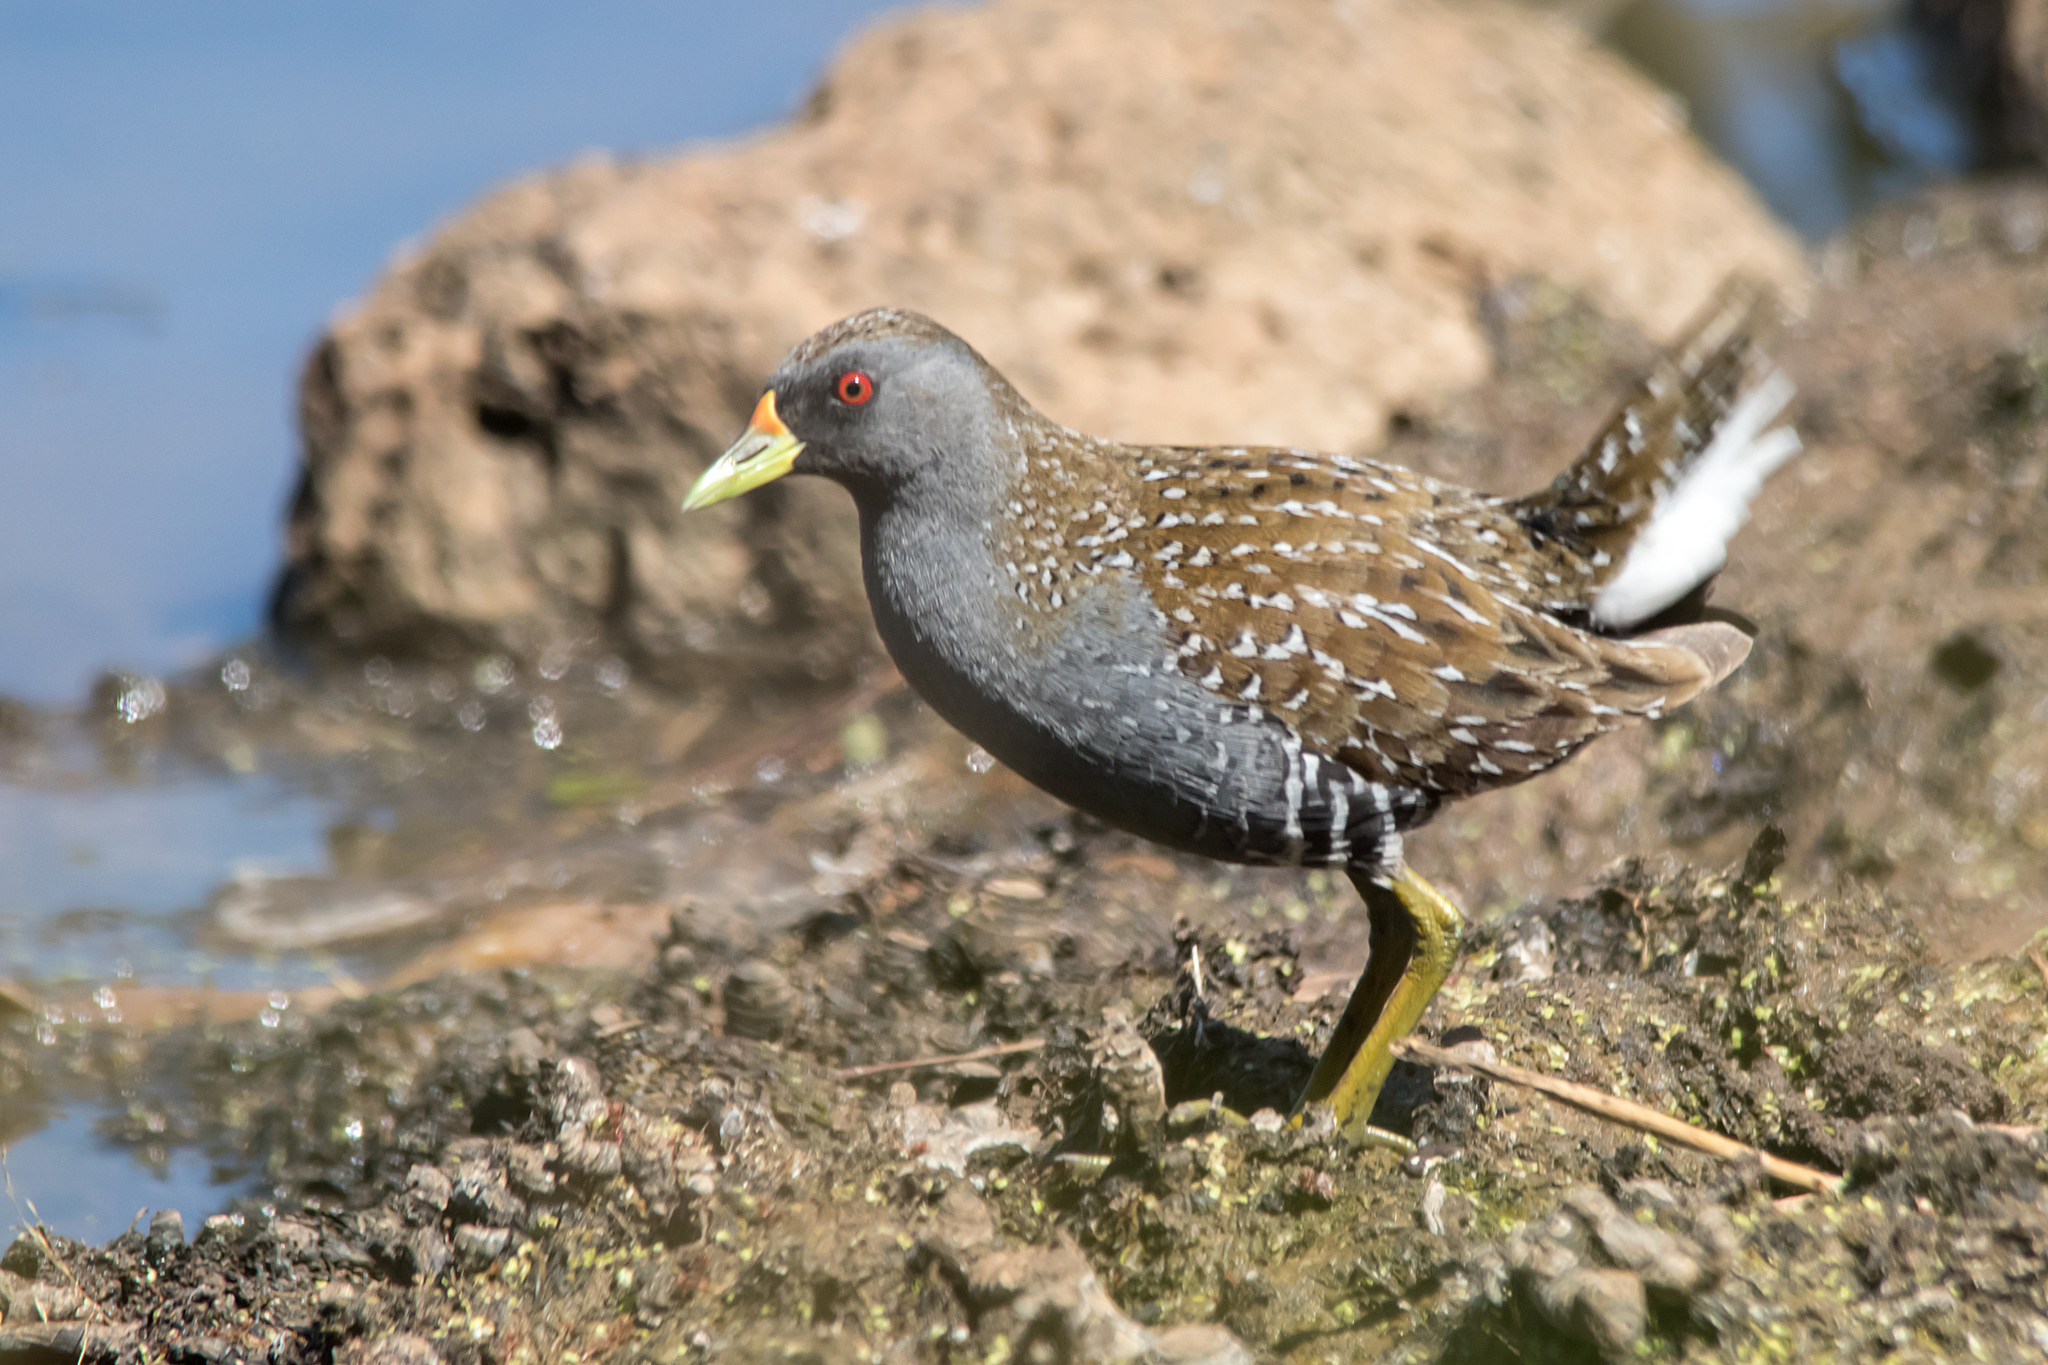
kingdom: Animalia
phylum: Chordata
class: Aves
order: Gruiformes
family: Rallidae
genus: Porzana
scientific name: Porzana fluminea
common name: Australian crake
